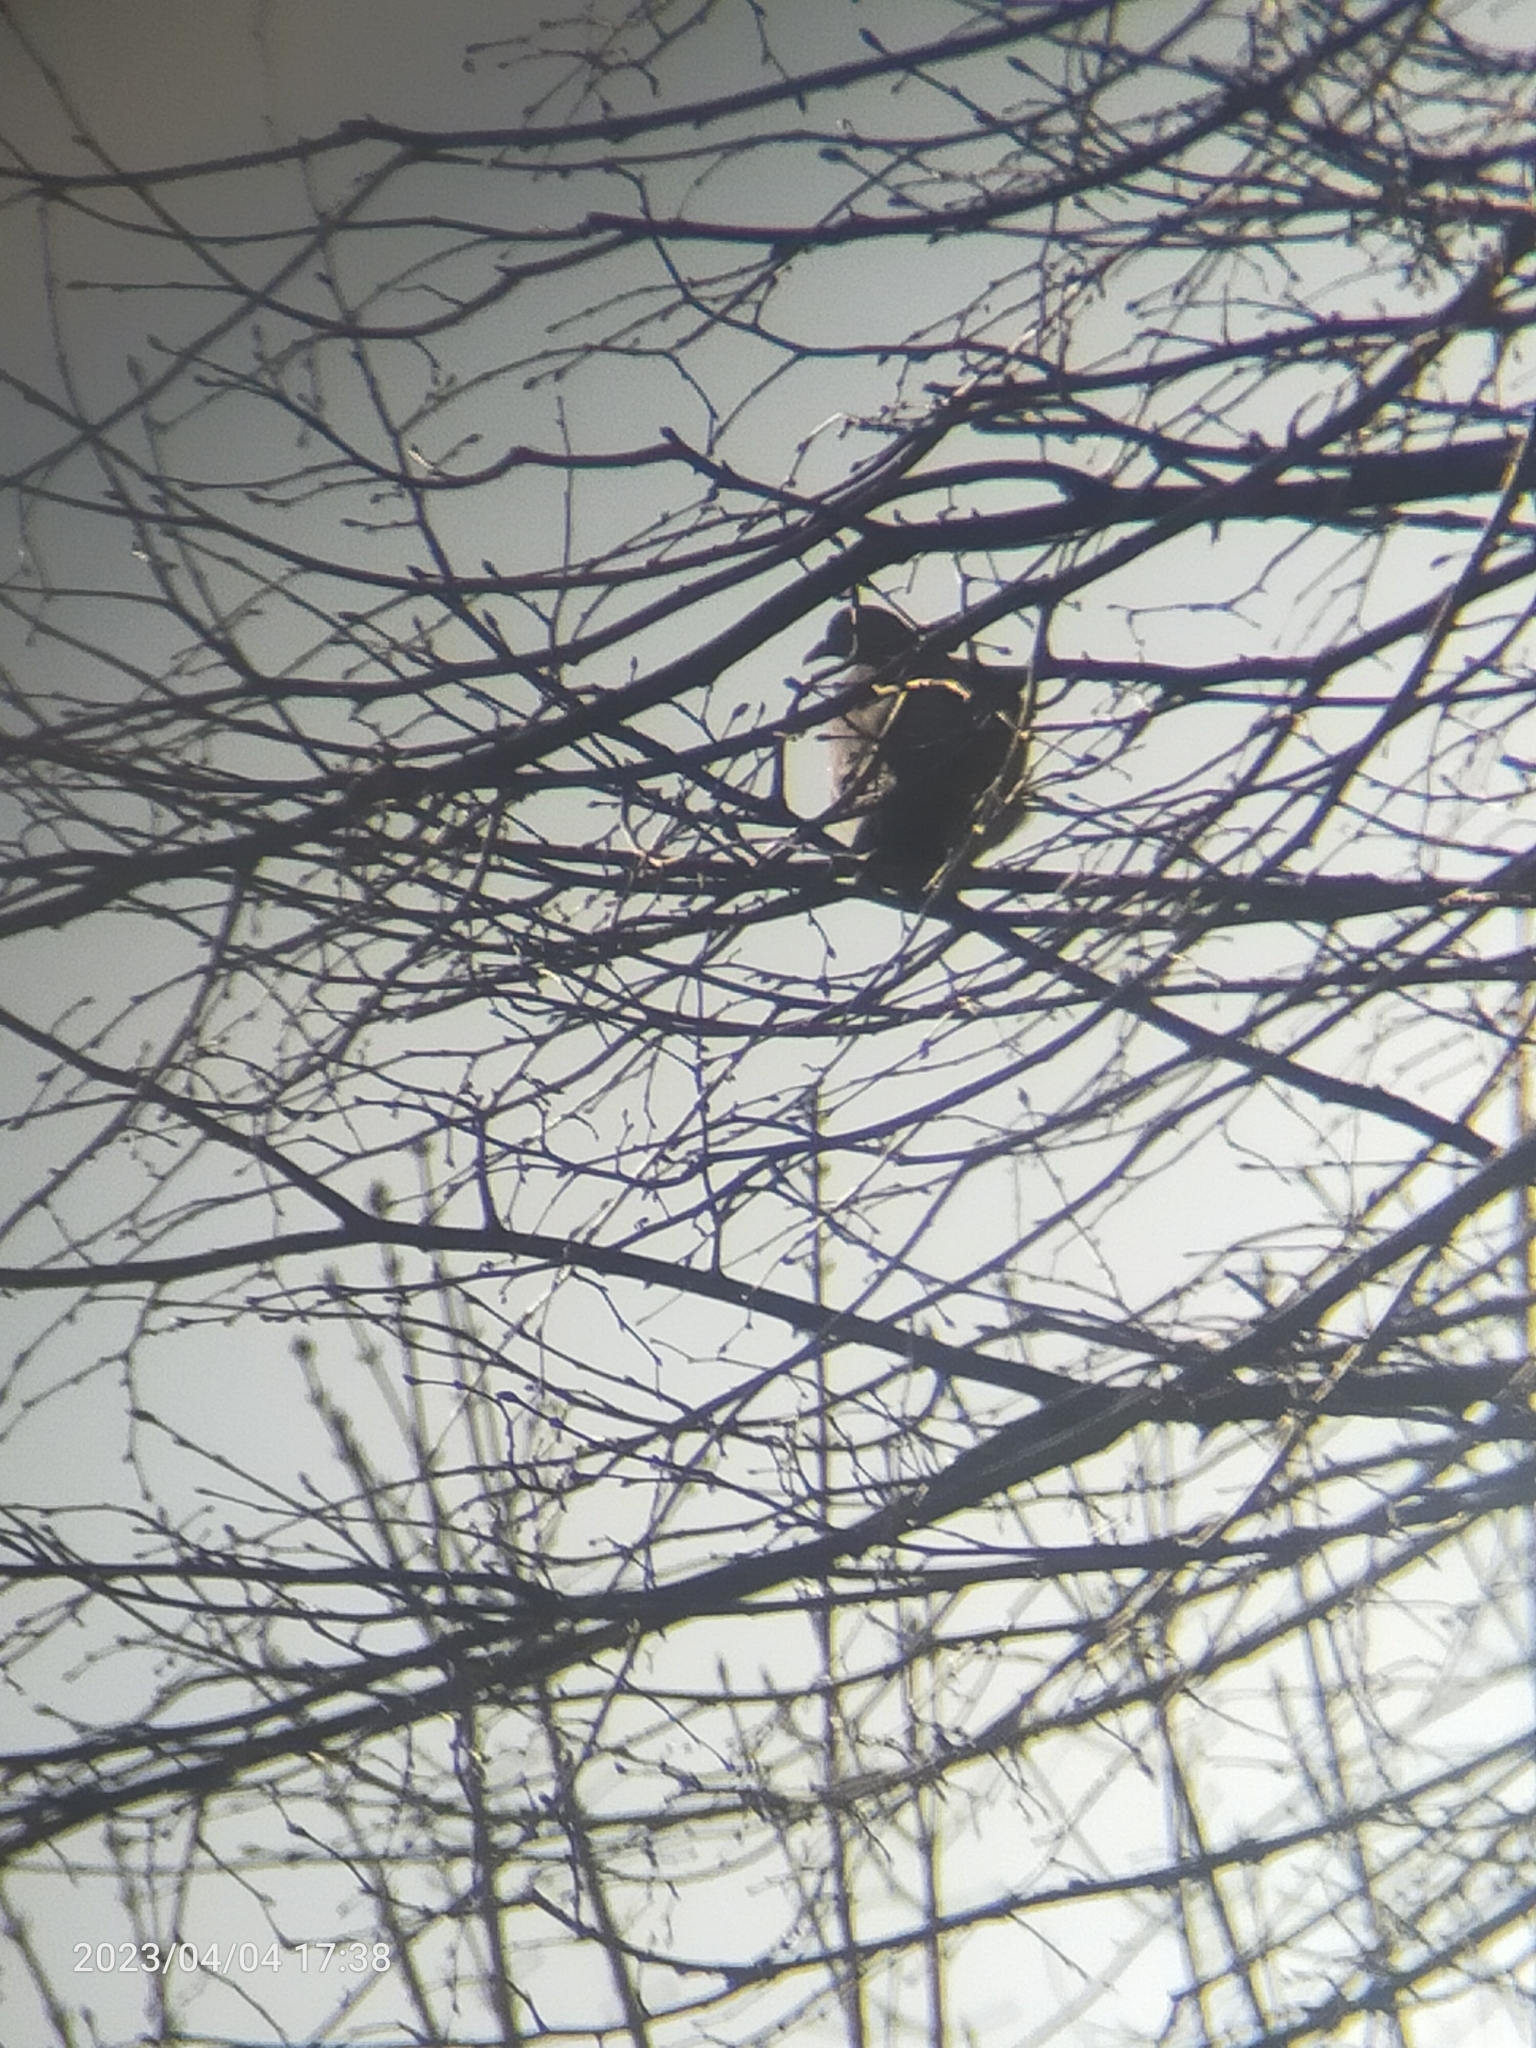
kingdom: Animalia
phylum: Chordata
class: Aves
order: Columbiformes
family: Columbidae
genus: Columba
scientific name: Columba palumbus
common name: Common wood pigeon
